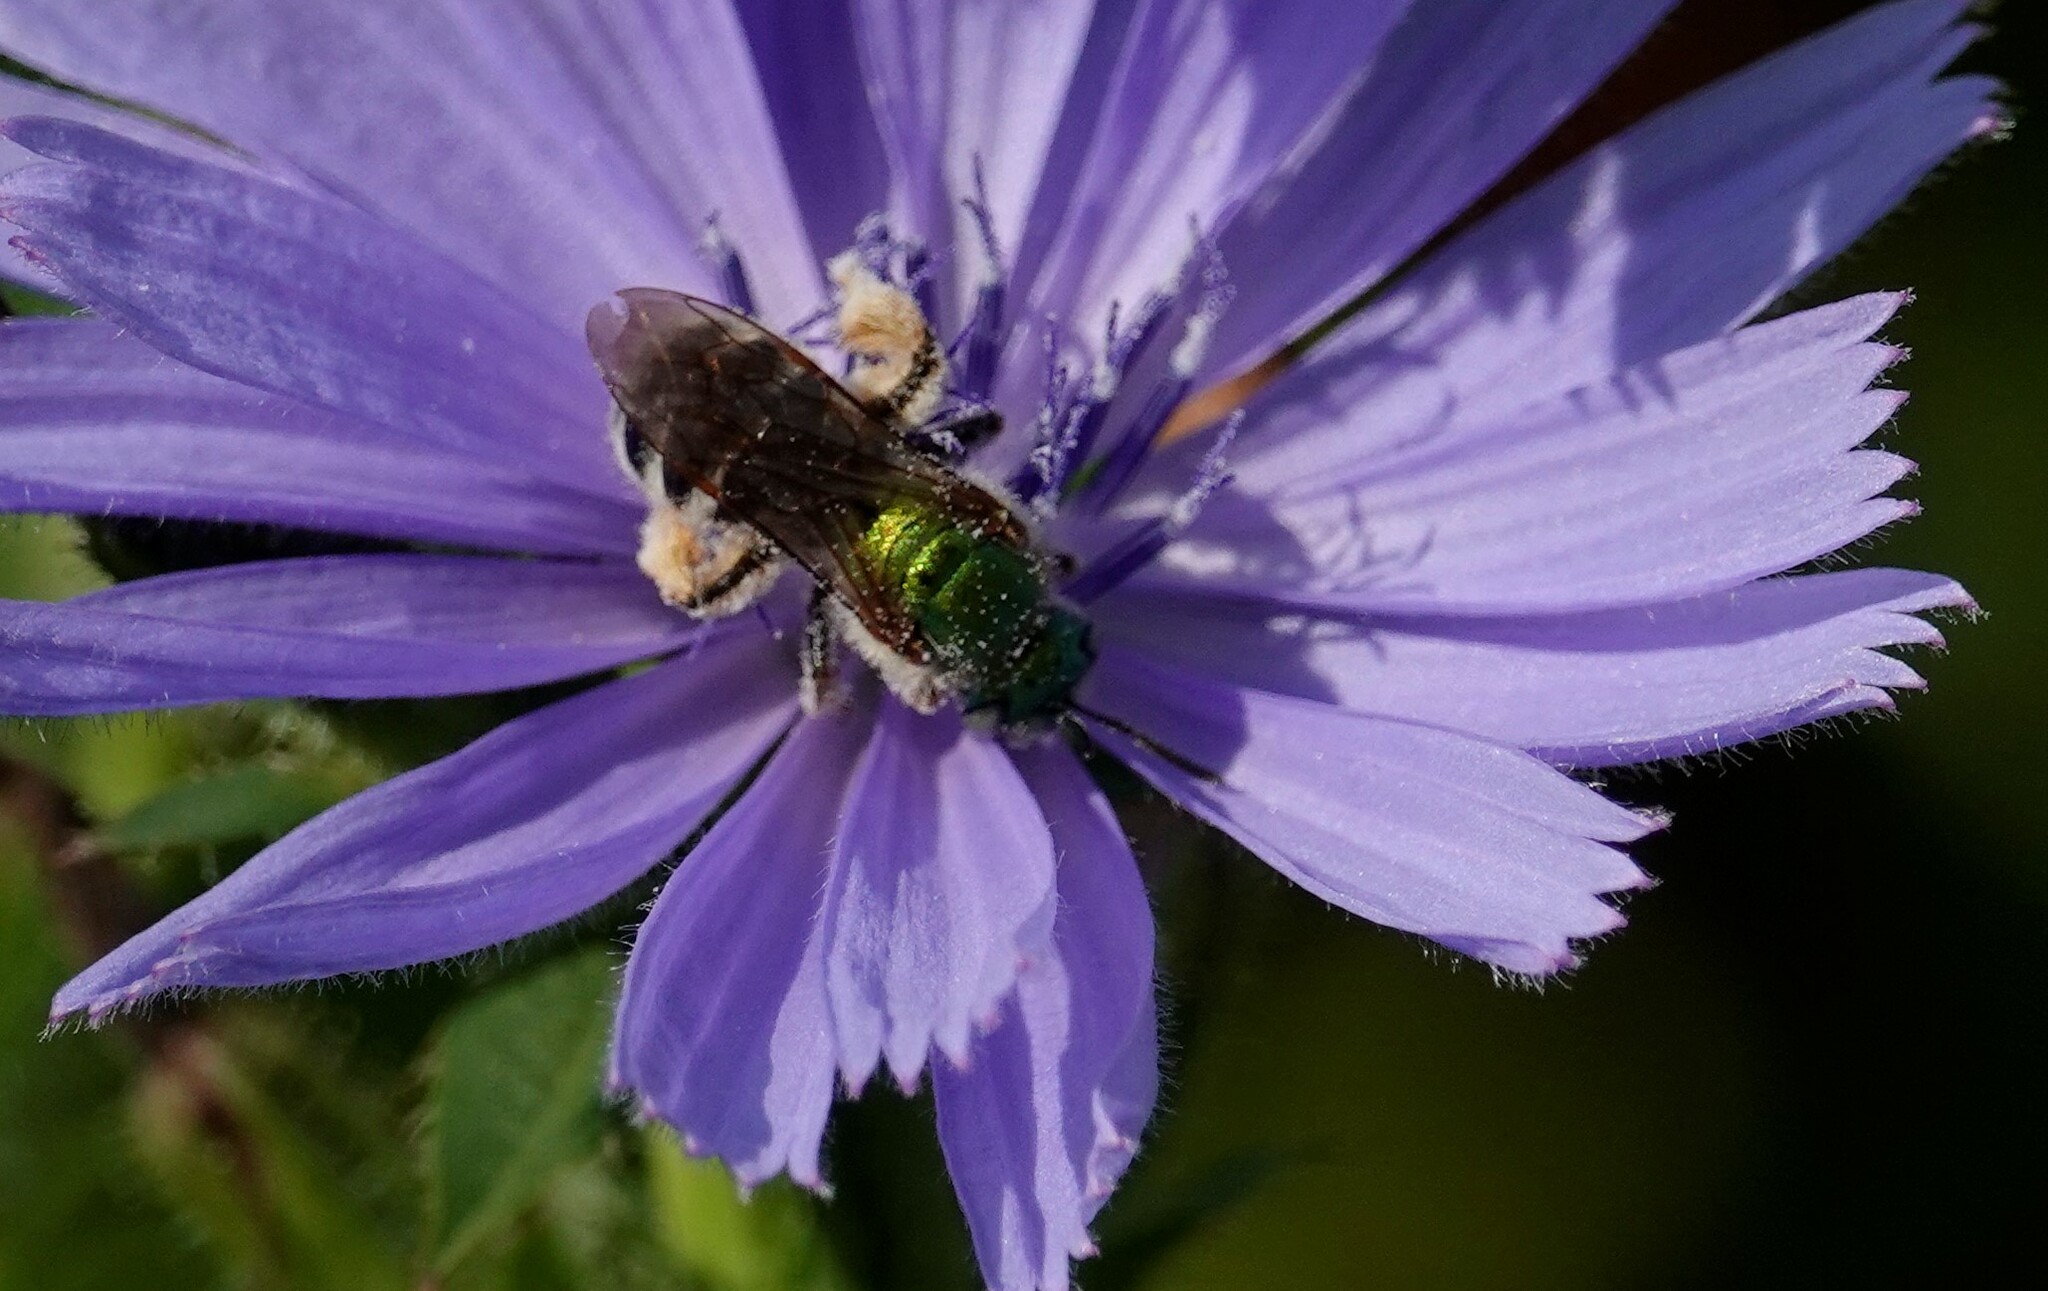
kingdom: Animalia
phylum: Arthropoda
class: Insecta
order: Hymenoptera
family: Halictidae
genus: Agapostemon
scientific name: Agapostemon virescens
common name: Bicolored striped sweat bee
